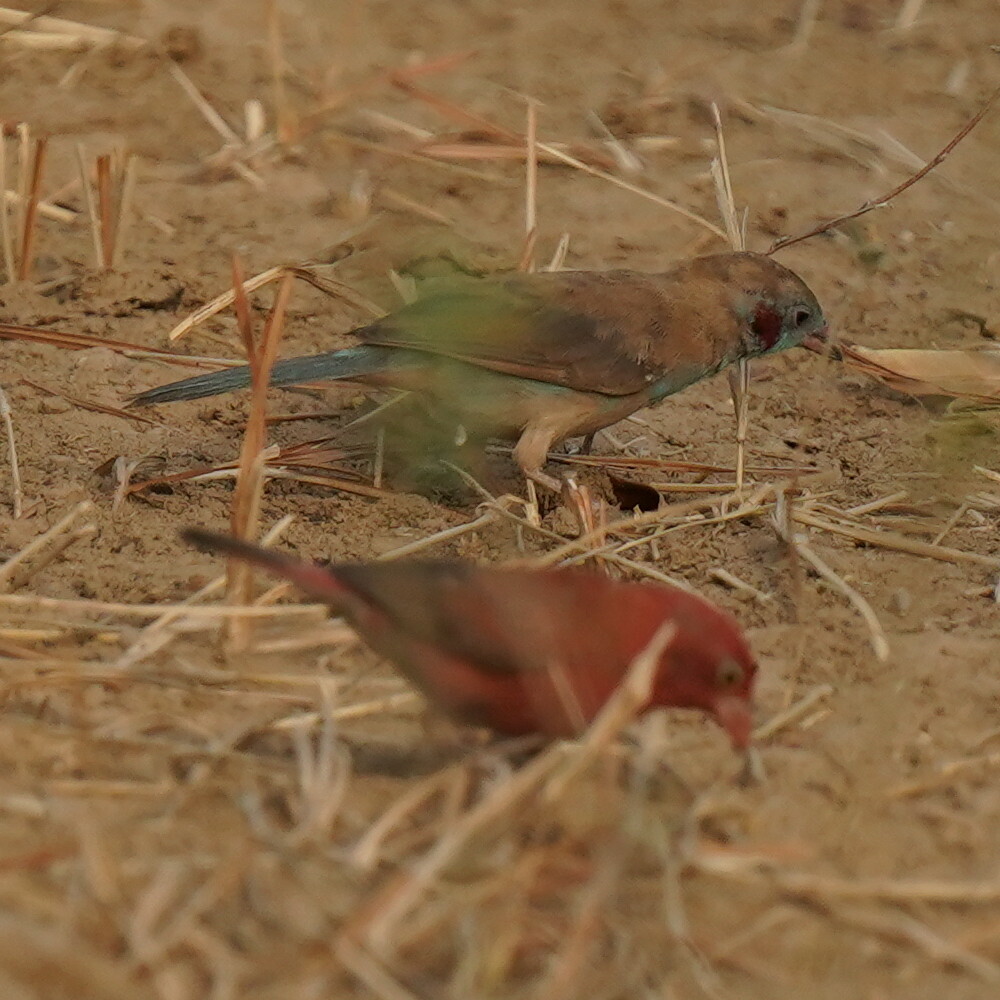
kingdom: Animalia
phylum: Chordata
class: Aves
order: Passeriformes
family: Estrildidae
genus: Uraeginthus
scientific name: Uraeginthus bengalus
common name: Red-cheeked cordon-bleu
